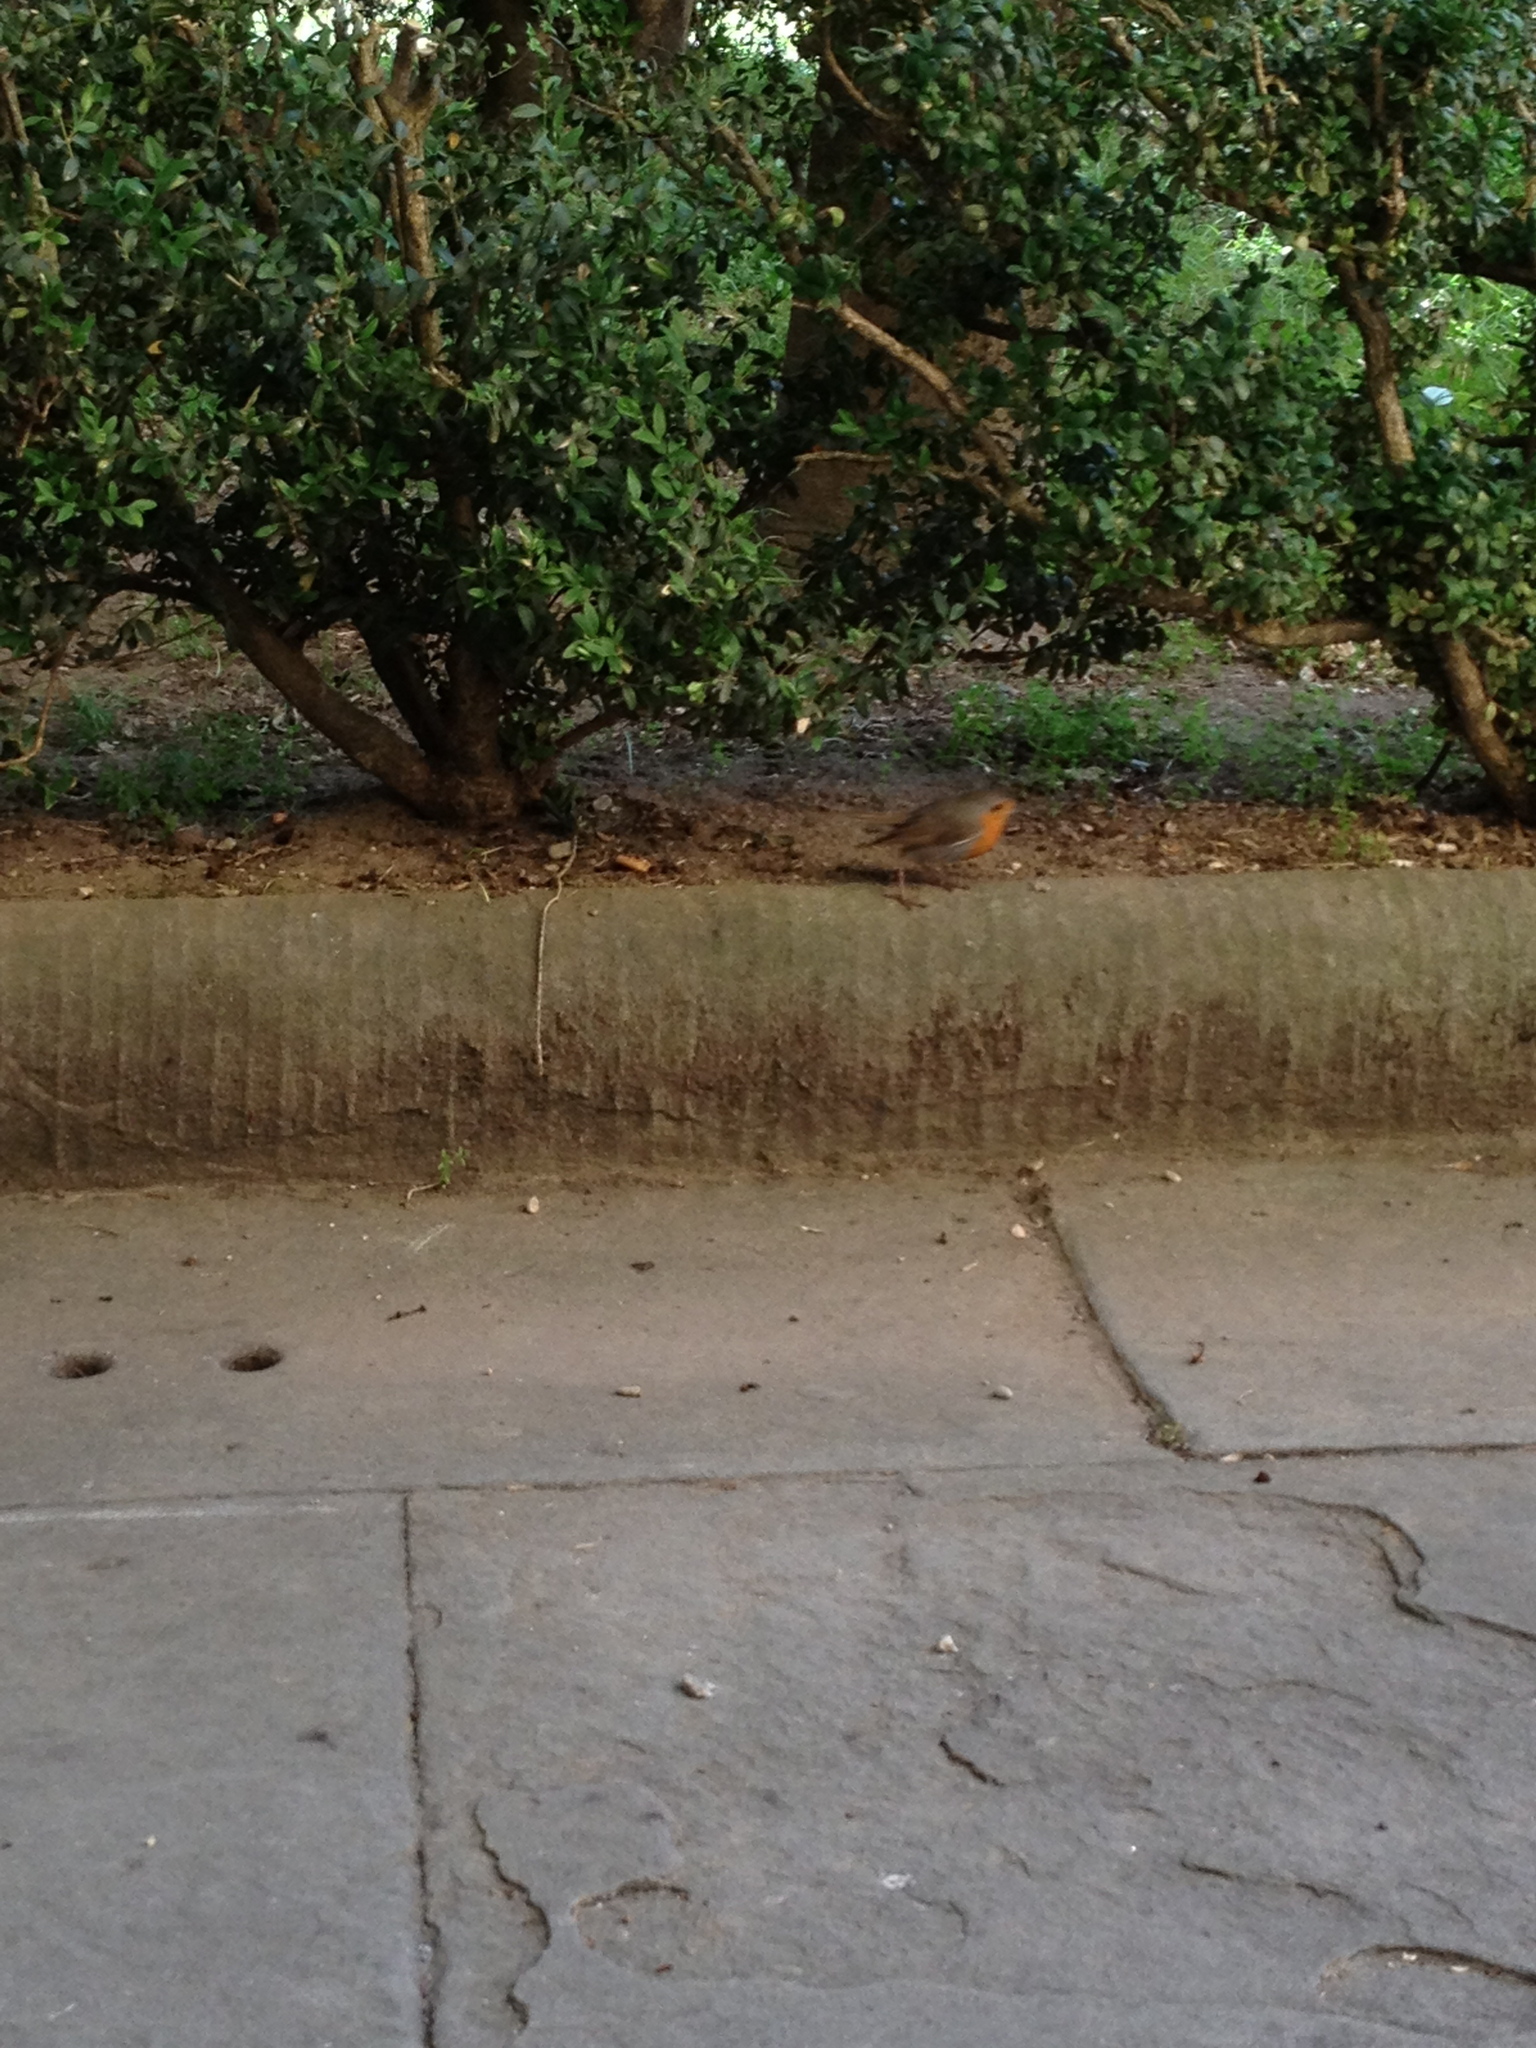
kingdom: Animalia
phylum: Chordata
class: Aves
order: Passeriformes
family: Muscicapidae
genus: Erithacus
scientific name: Erithacus rubecula
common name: European robin
